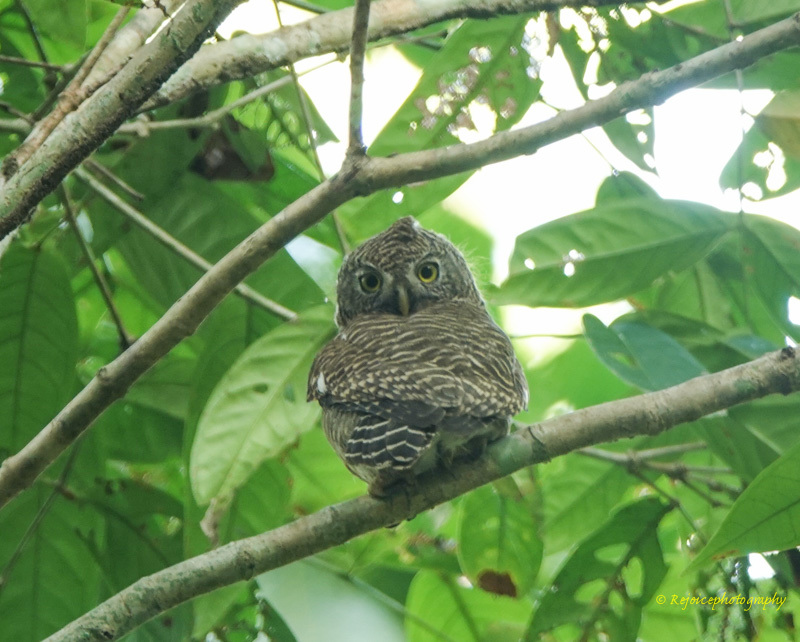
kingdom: Animalia
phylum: Chordata
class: Aves
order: Strigiformes
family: Strigidae
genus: Glaucidium
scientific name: Glaucidium cuculoides
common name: Asian barred owlet
